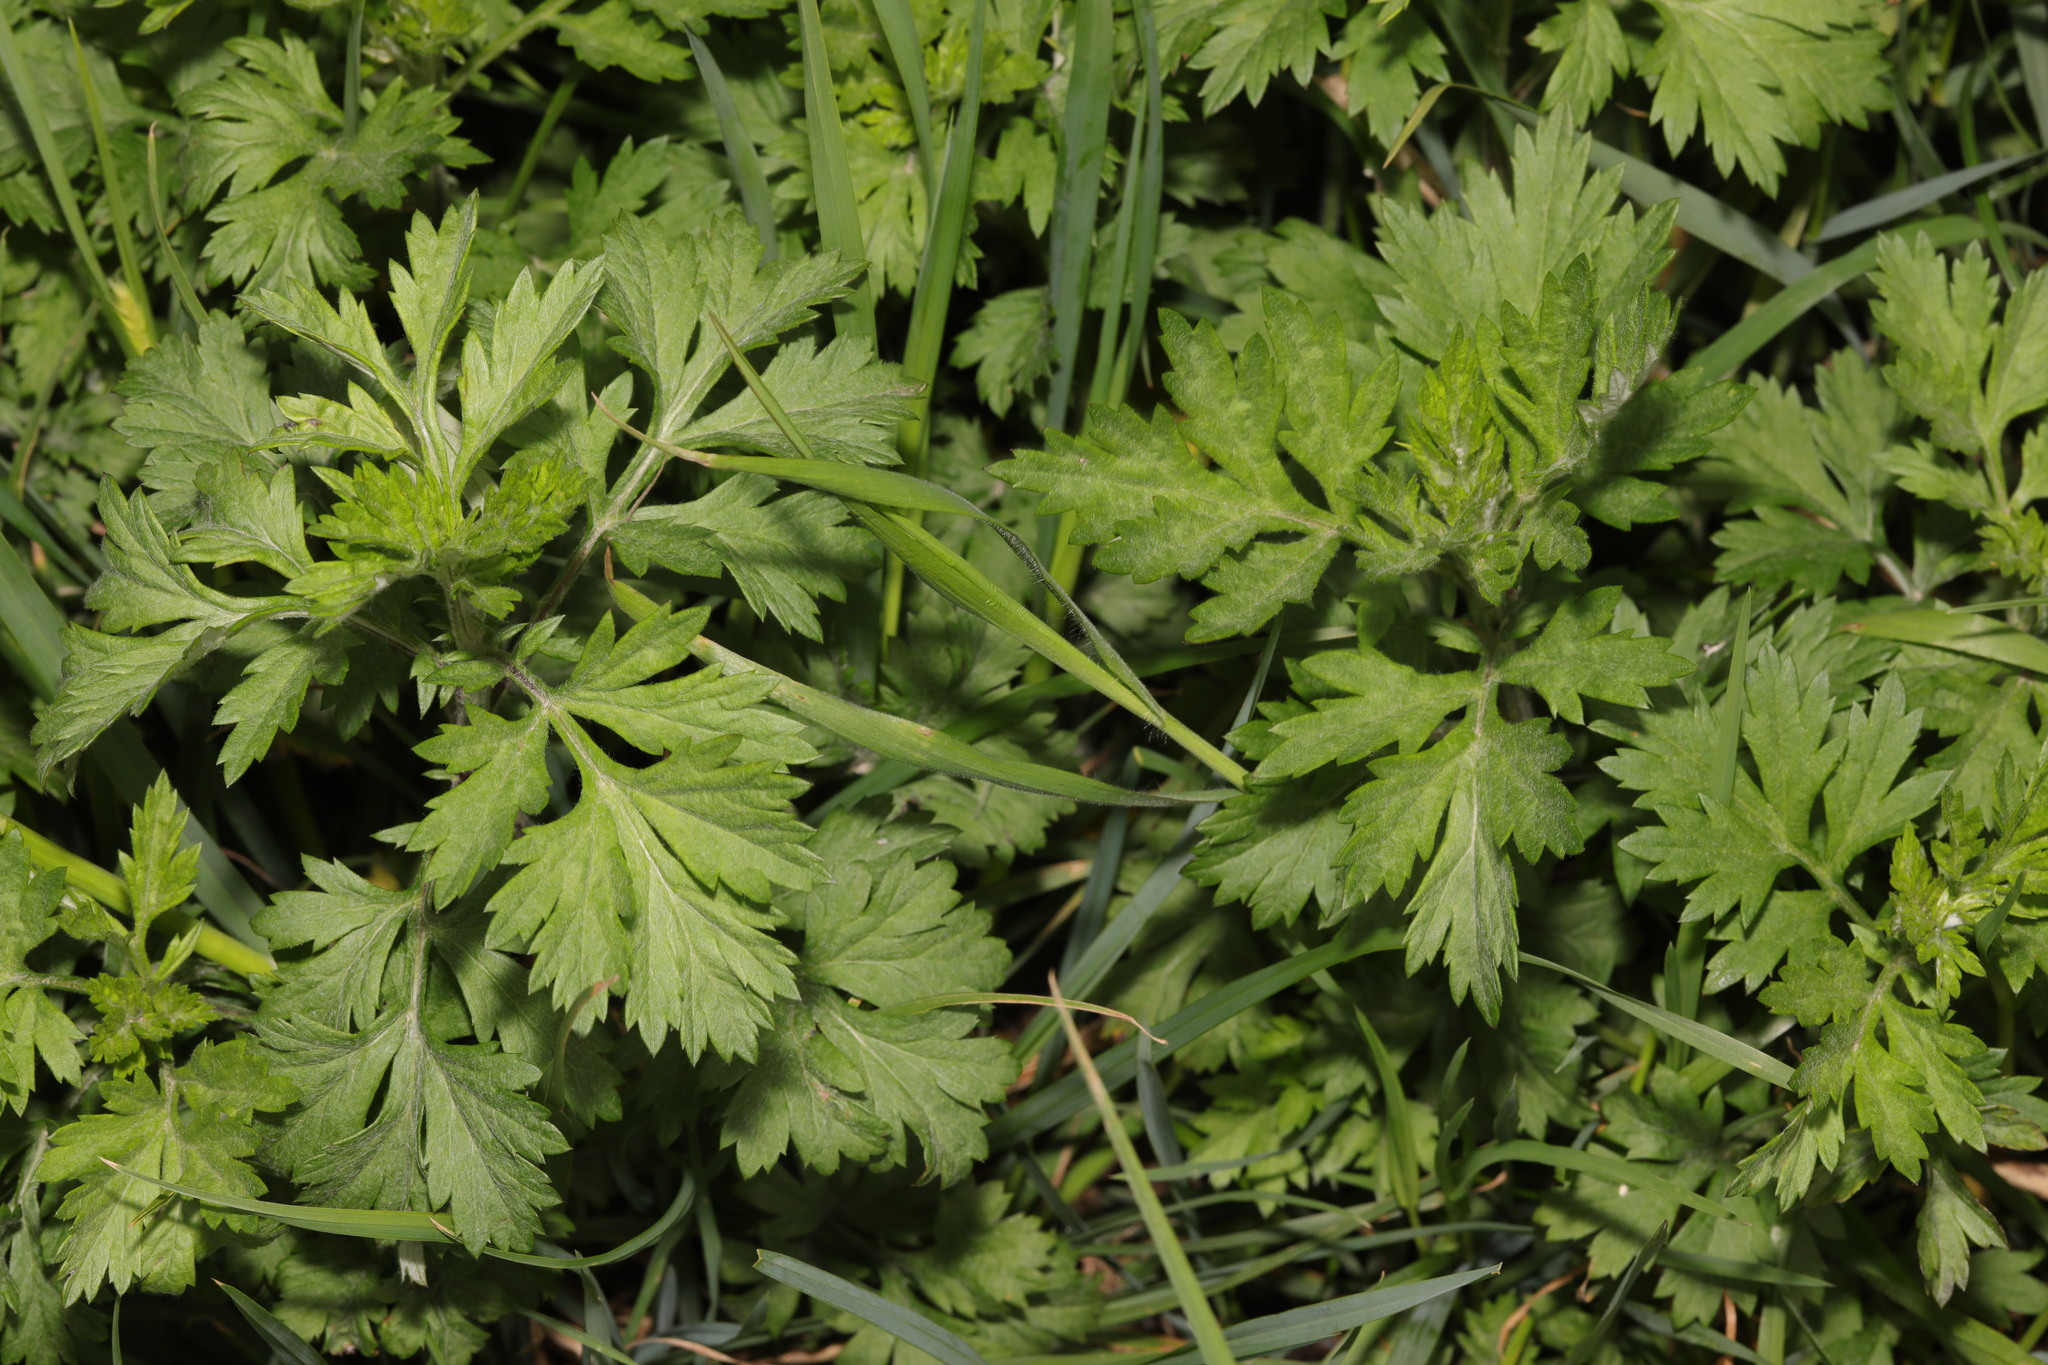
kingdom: Plantae
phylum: Tracheophyta
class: Magnoliopsida
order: Asterales
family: Asteraceae
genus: Artemisia
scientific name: Artemisia vulgaris
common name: Mugwort
